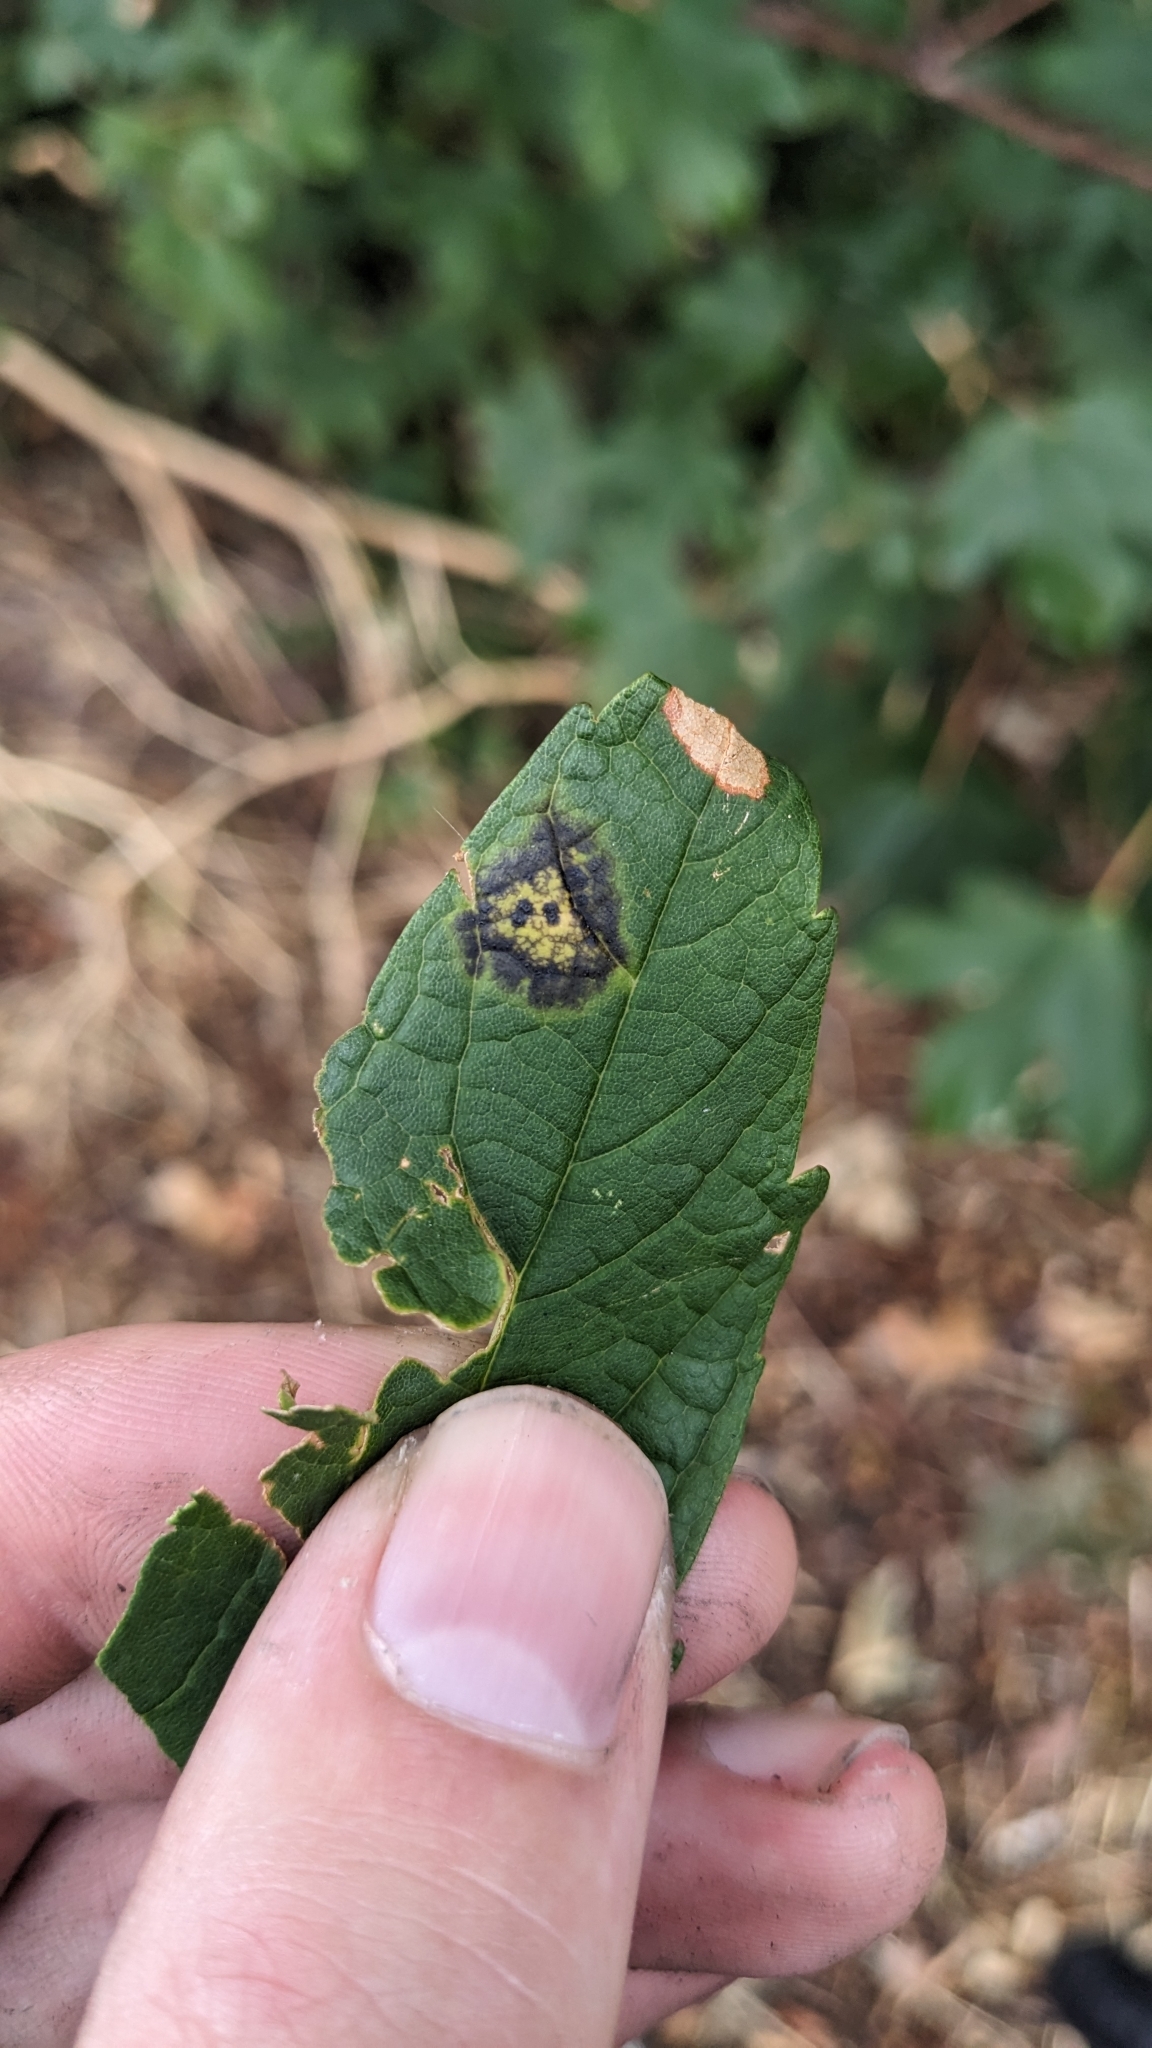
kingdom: Fungi
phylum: Ascomycota
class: Leotiomycetes
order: Rhytismatales
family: Rhytismataceae
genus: Rhytisma
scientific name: Rhytisma acerinum
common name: European tar spot
